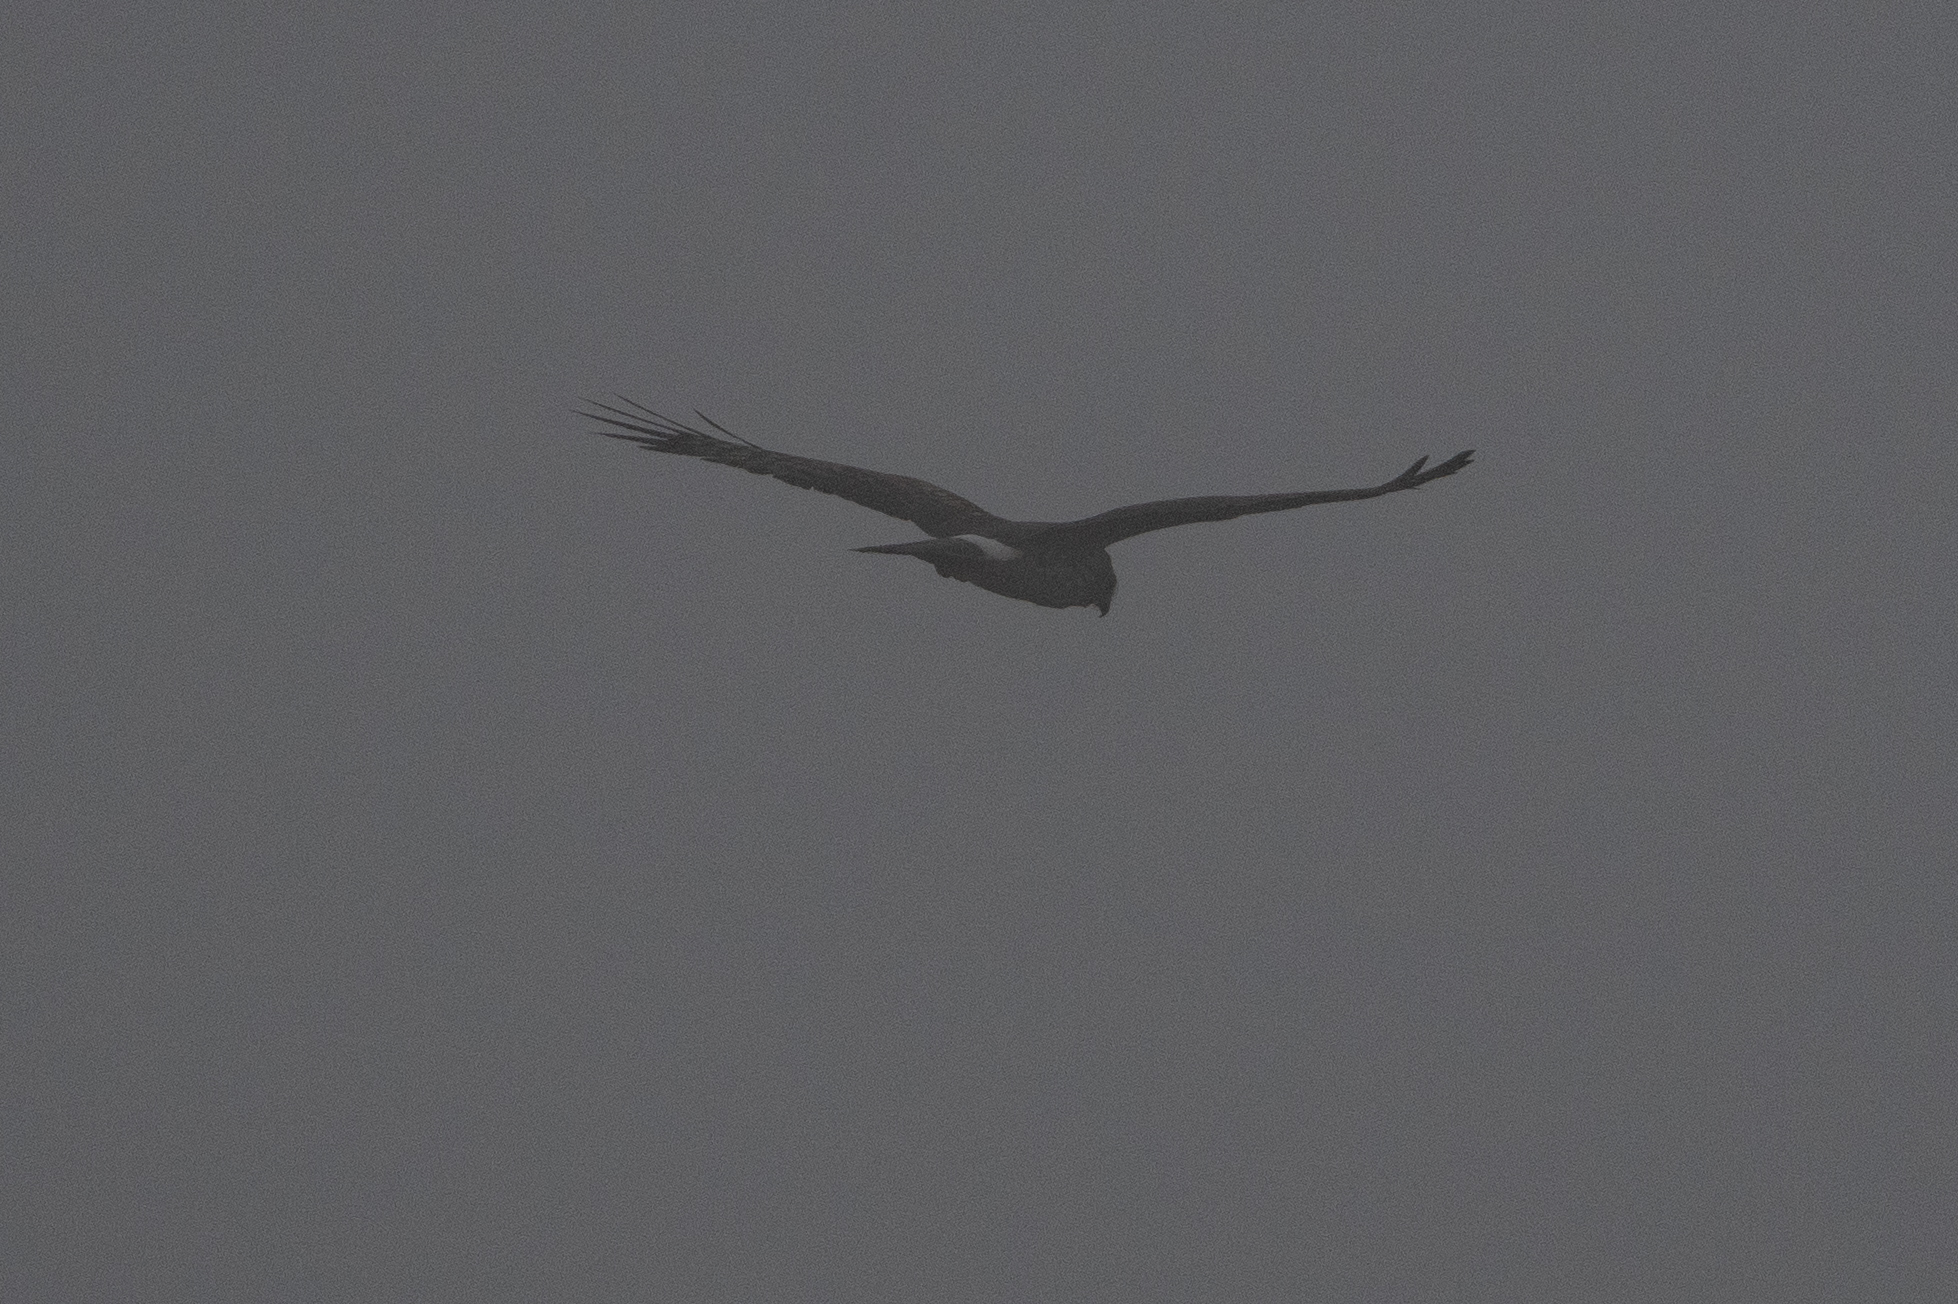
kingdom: Animalia
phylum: Chordata
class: Aves
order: Accipitriformes
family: Accipitridae
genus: Circus
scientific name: Circus cyaneus
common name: Hen harrier
